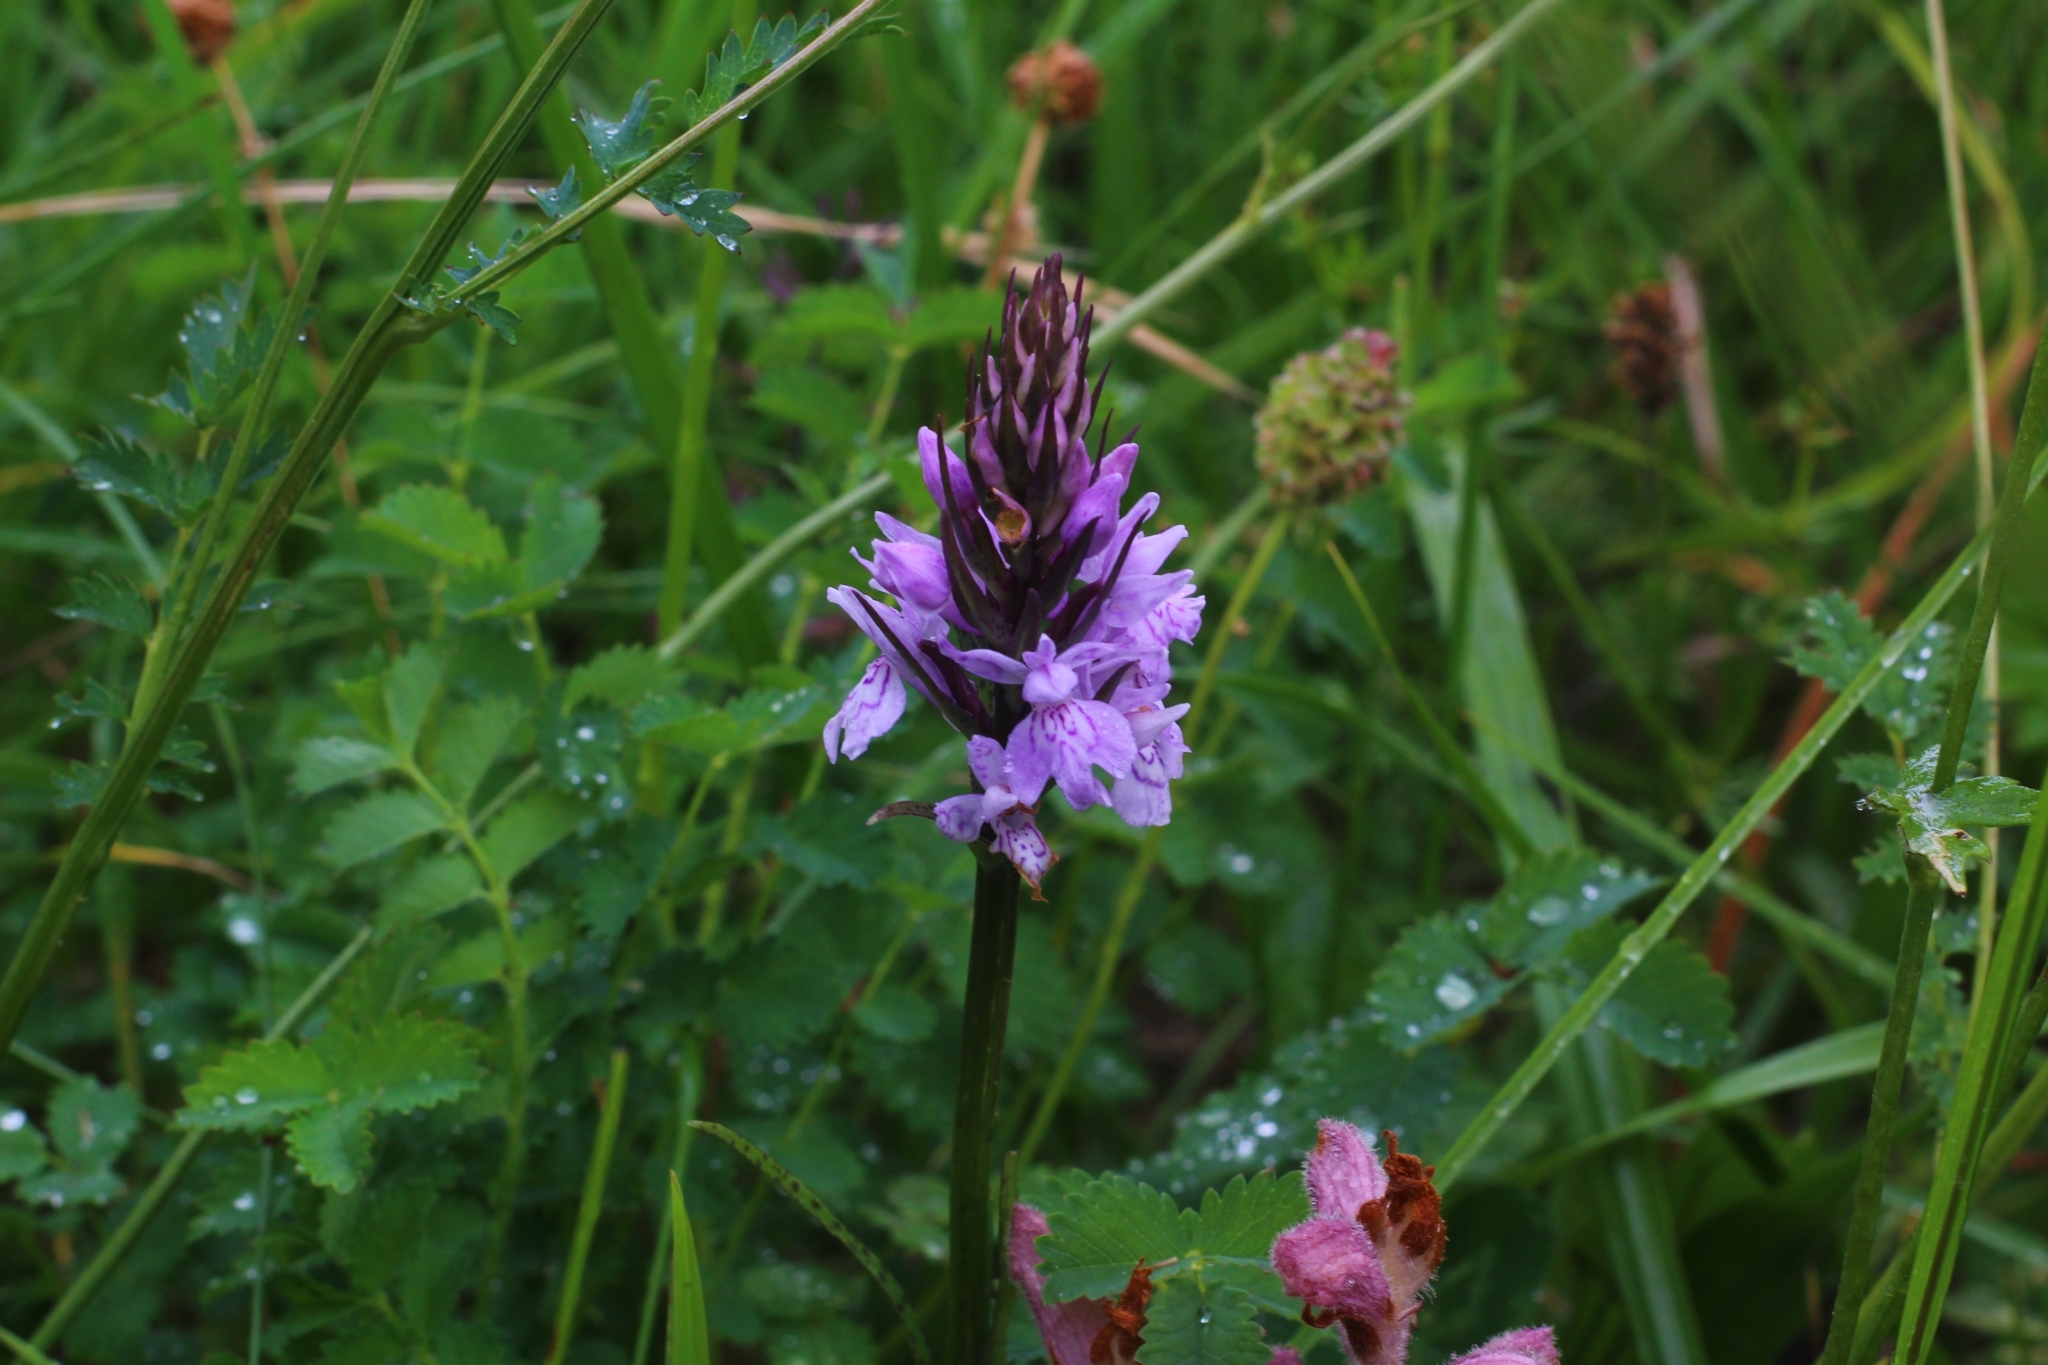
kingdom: Plantae
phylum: Tracheophyta
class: Liliopsida
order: Asparagales
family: Orchidaceae
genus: Dactylorhiza
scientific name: Dactylorhiza maculata
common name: Heath spotted-orchid
